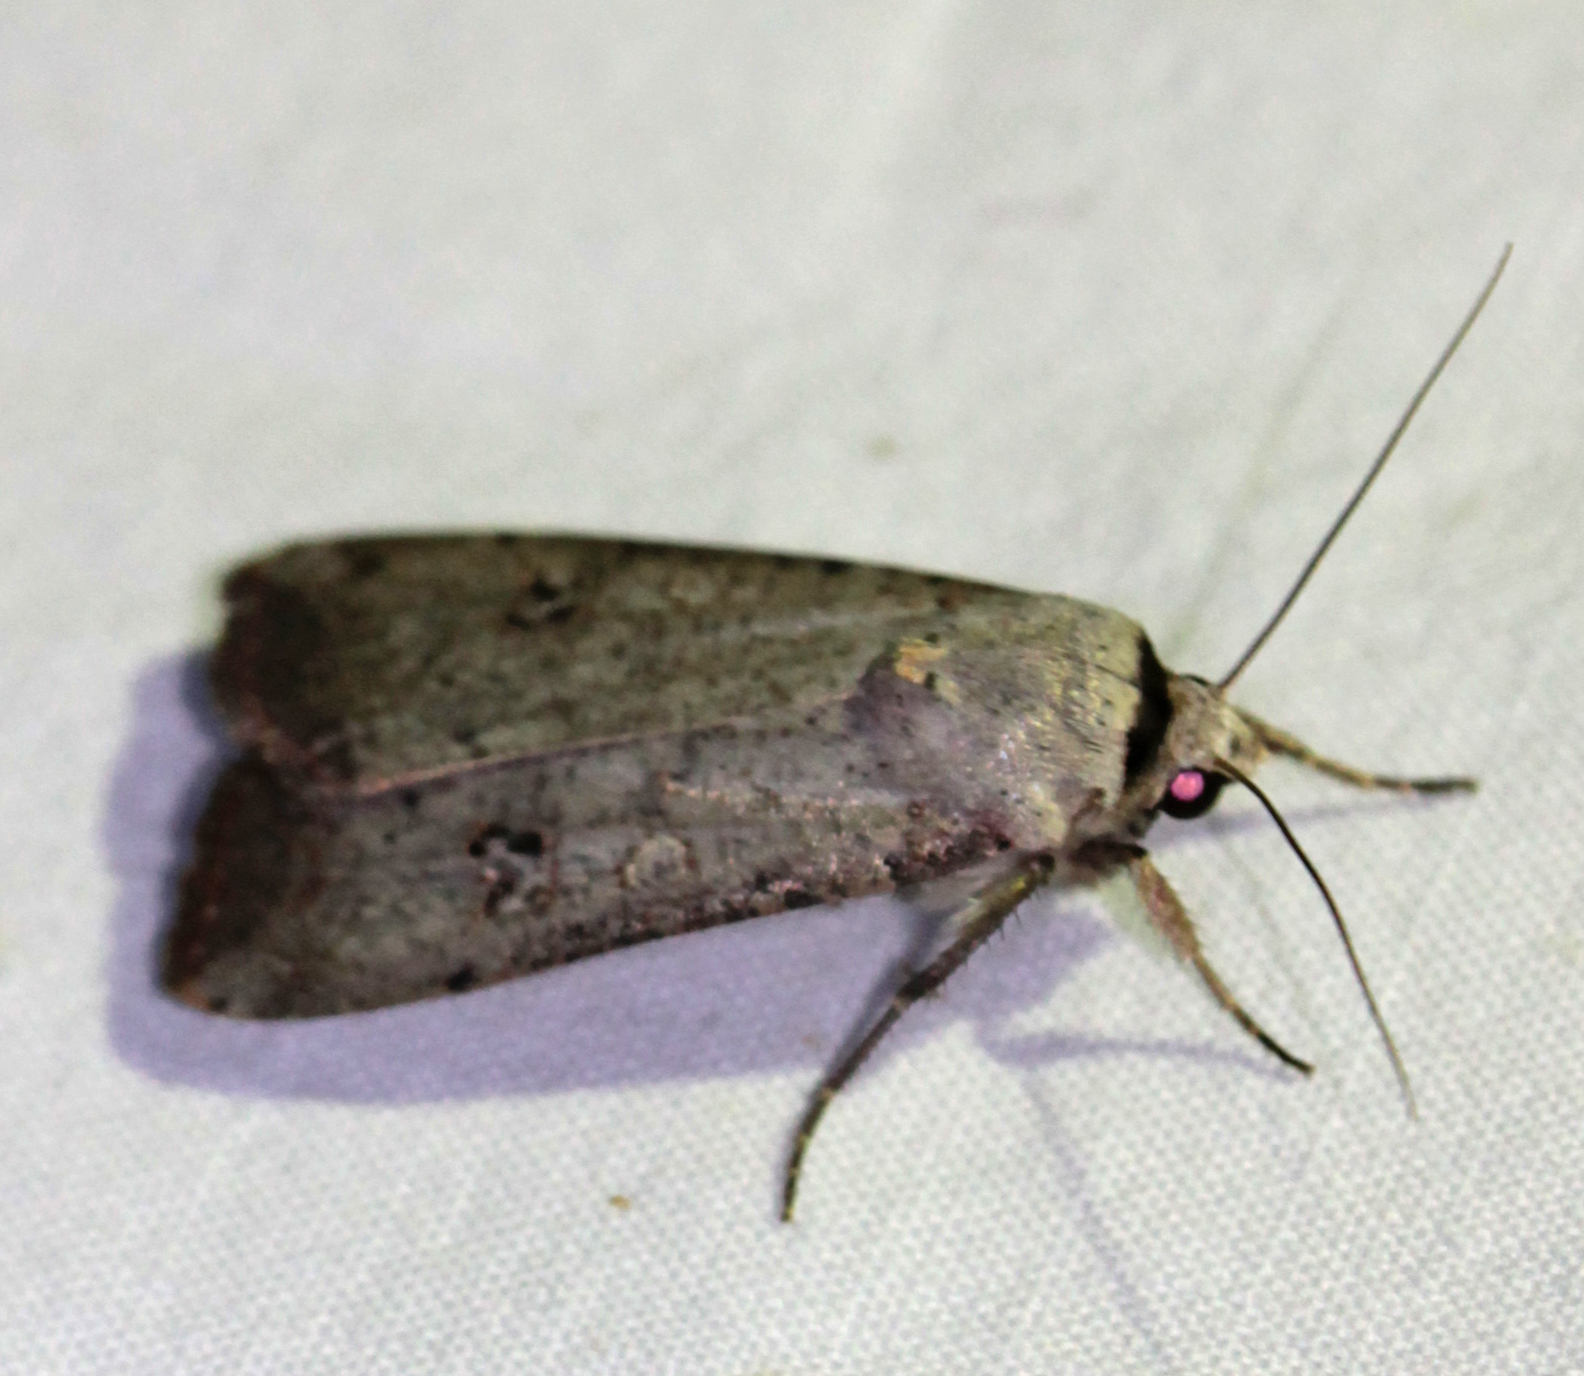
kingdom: Animalia
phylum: Arthropoda
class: Insecta
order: Lepidoptera
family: Noctuidae
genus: Anicla
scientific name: Anicla infecta
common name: Green cutworm
